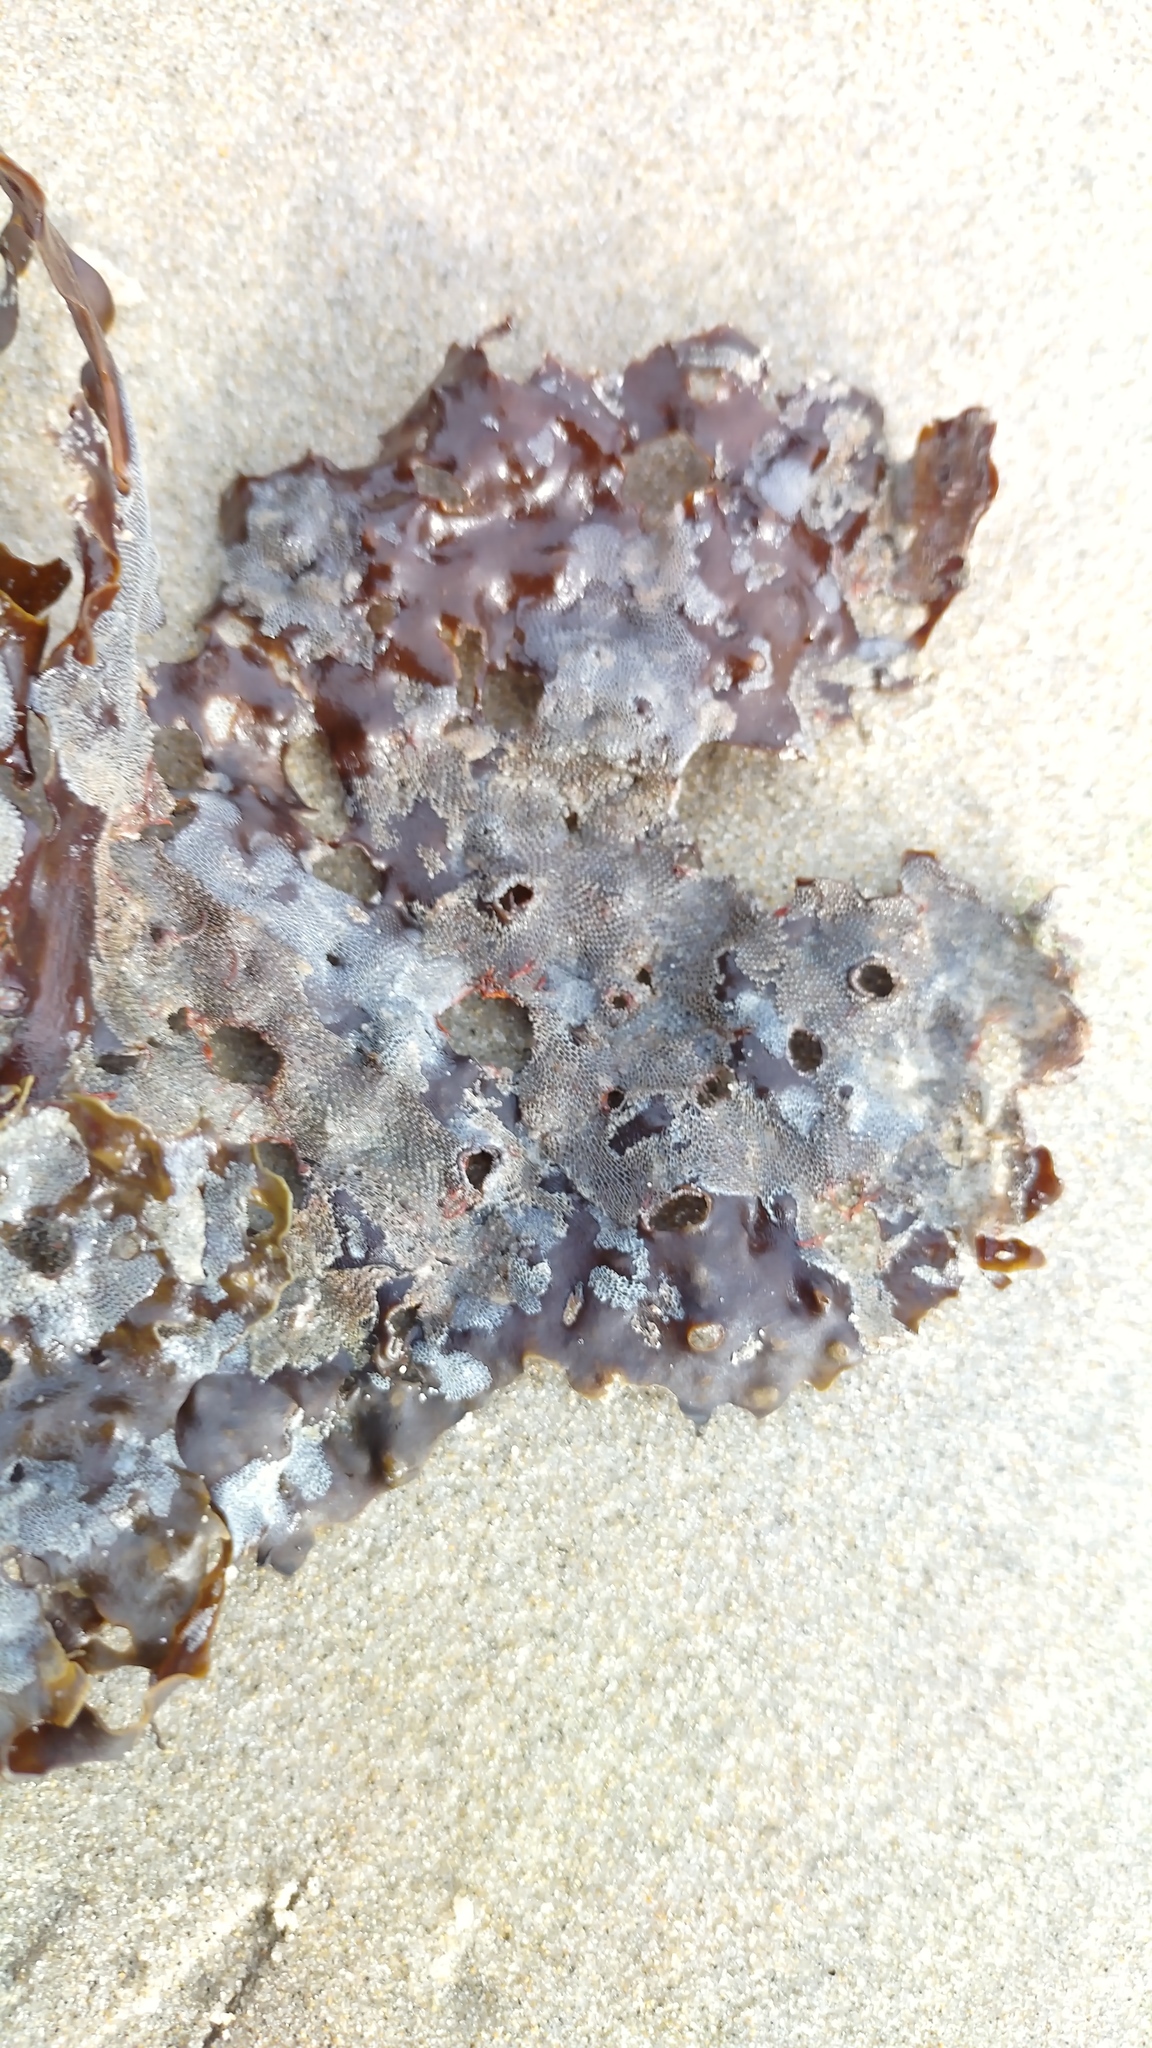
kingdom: Chromista
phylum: Ochrophyta
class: Phaeophyceae
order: Laminariales
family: Costariaceae
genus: Agarum
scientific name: Agarum clathratum
